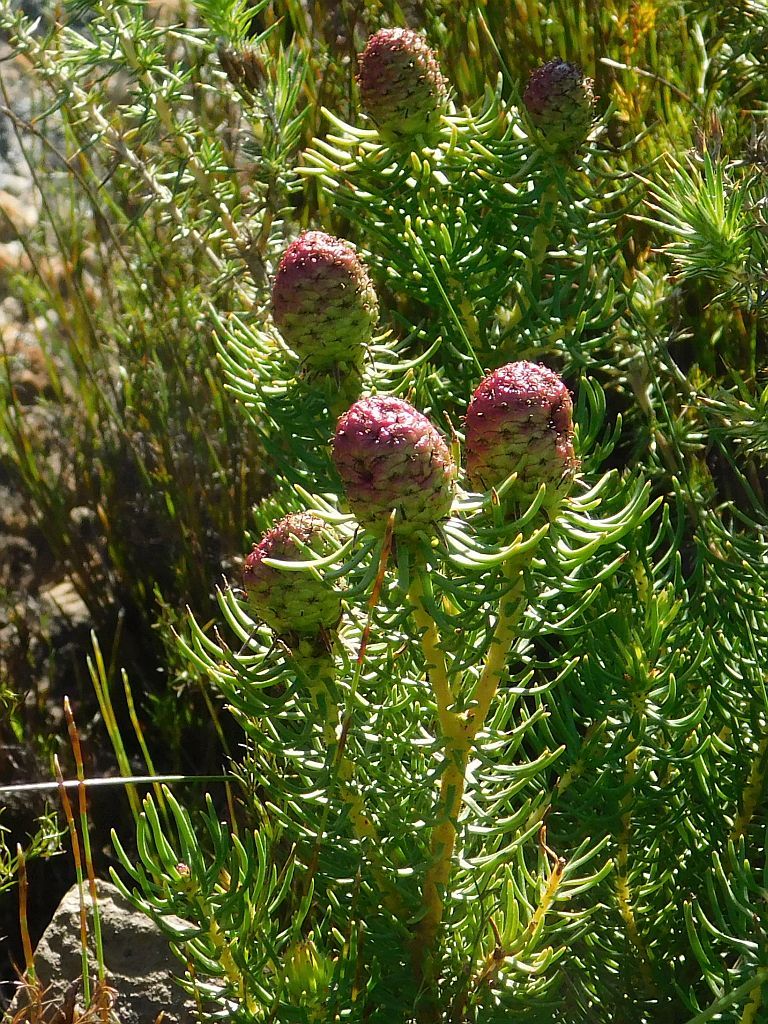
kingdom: Plantae
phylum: Tracheophyta
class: Magnoliopsida
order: Proteales
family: Proteaceae
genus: Leucadendron
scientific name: Leucadendron teretifolium
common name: Needle-leaf conebush
